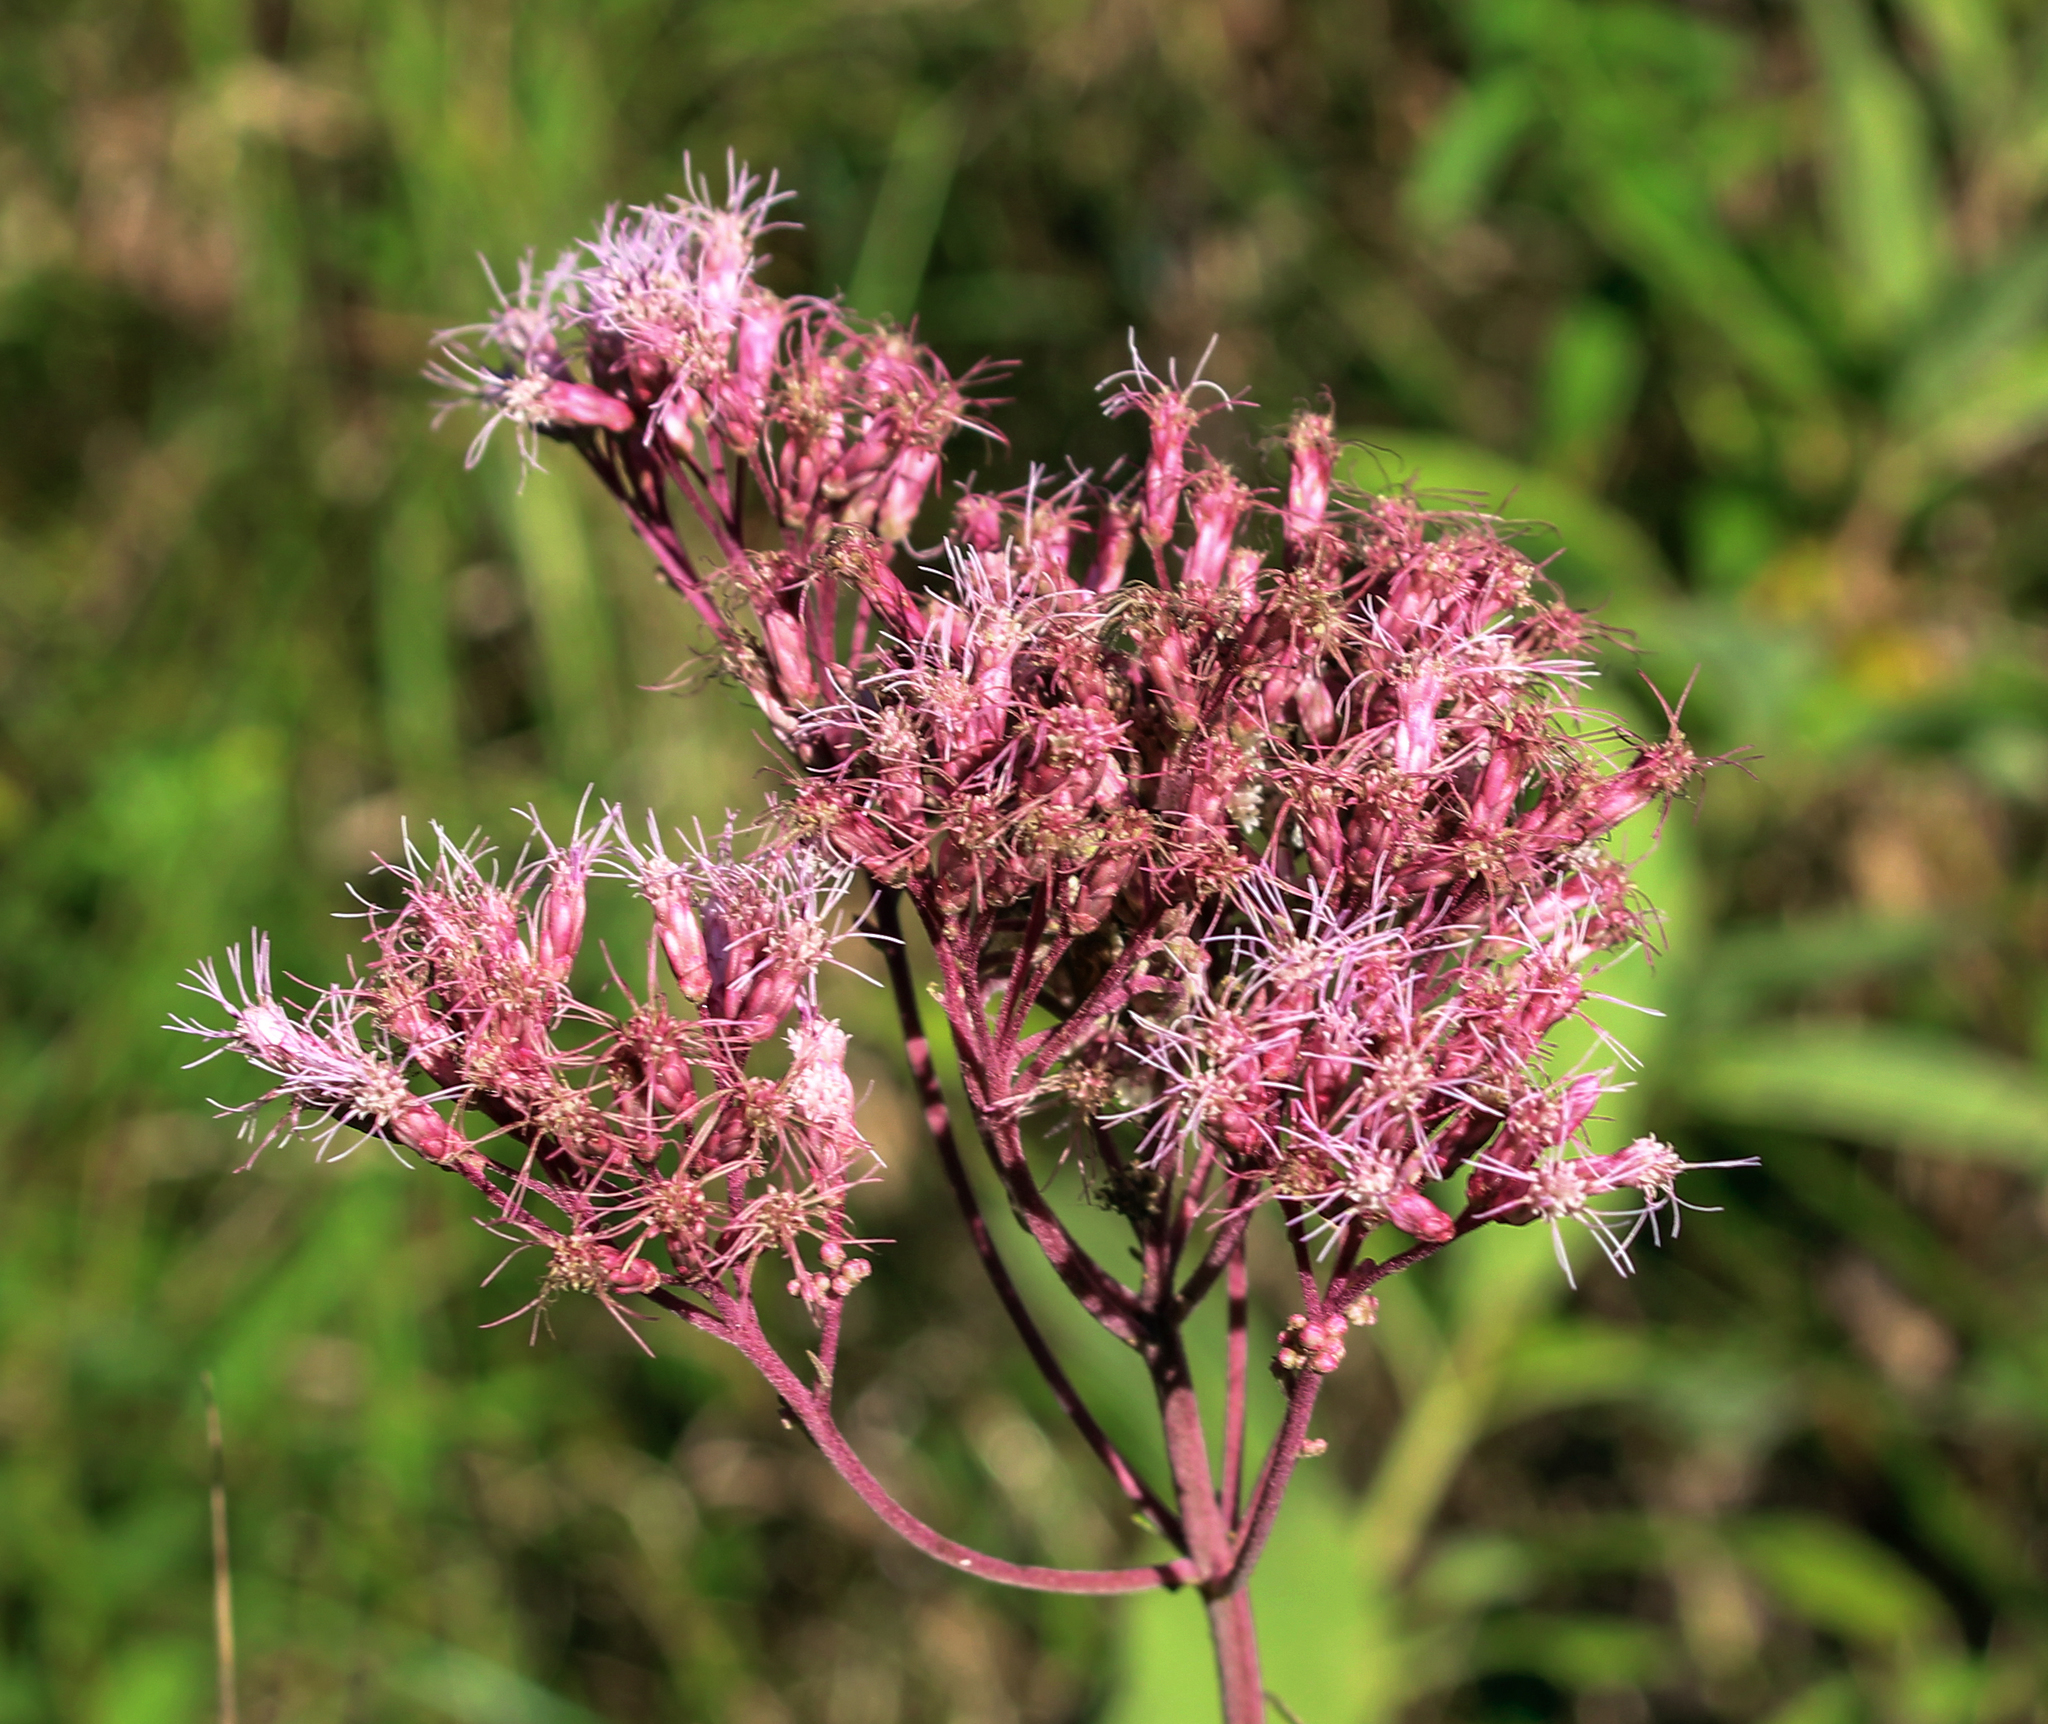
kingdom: Plantae
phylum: Tracheophyta
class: Magnoliopsida
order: Asterales
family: Asteraceae
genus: Eutrochium
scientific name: Eutrochium maculatum
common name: Spotted joe pye weed
